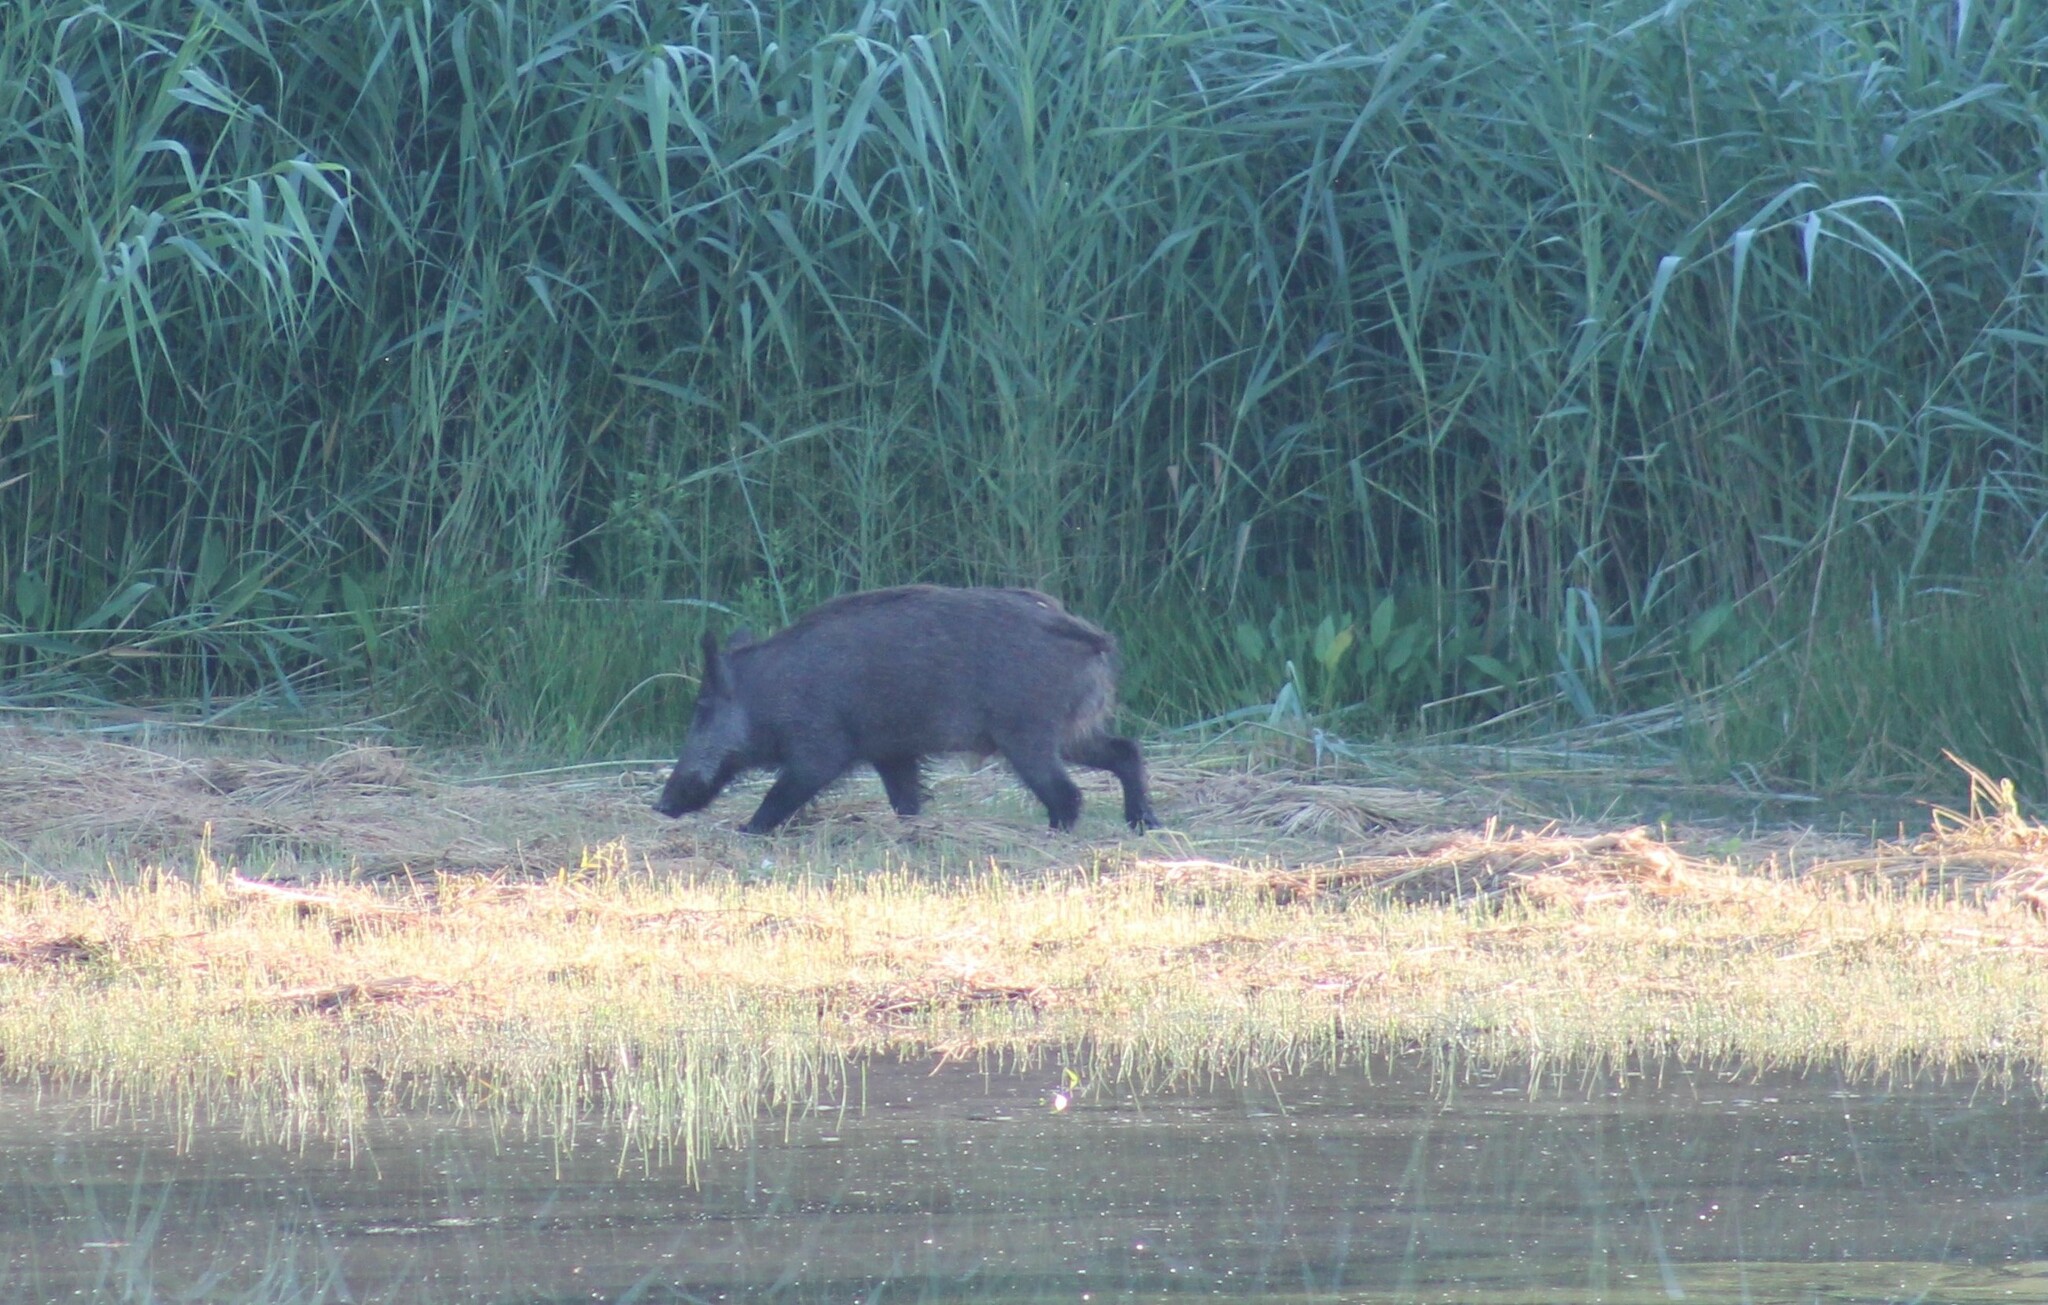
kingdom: Animalia
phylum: Chordata
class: Mammalia
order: Artiodactyla
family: Suidae
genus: Sus
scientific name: Sus scrofa
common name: Wild boar
